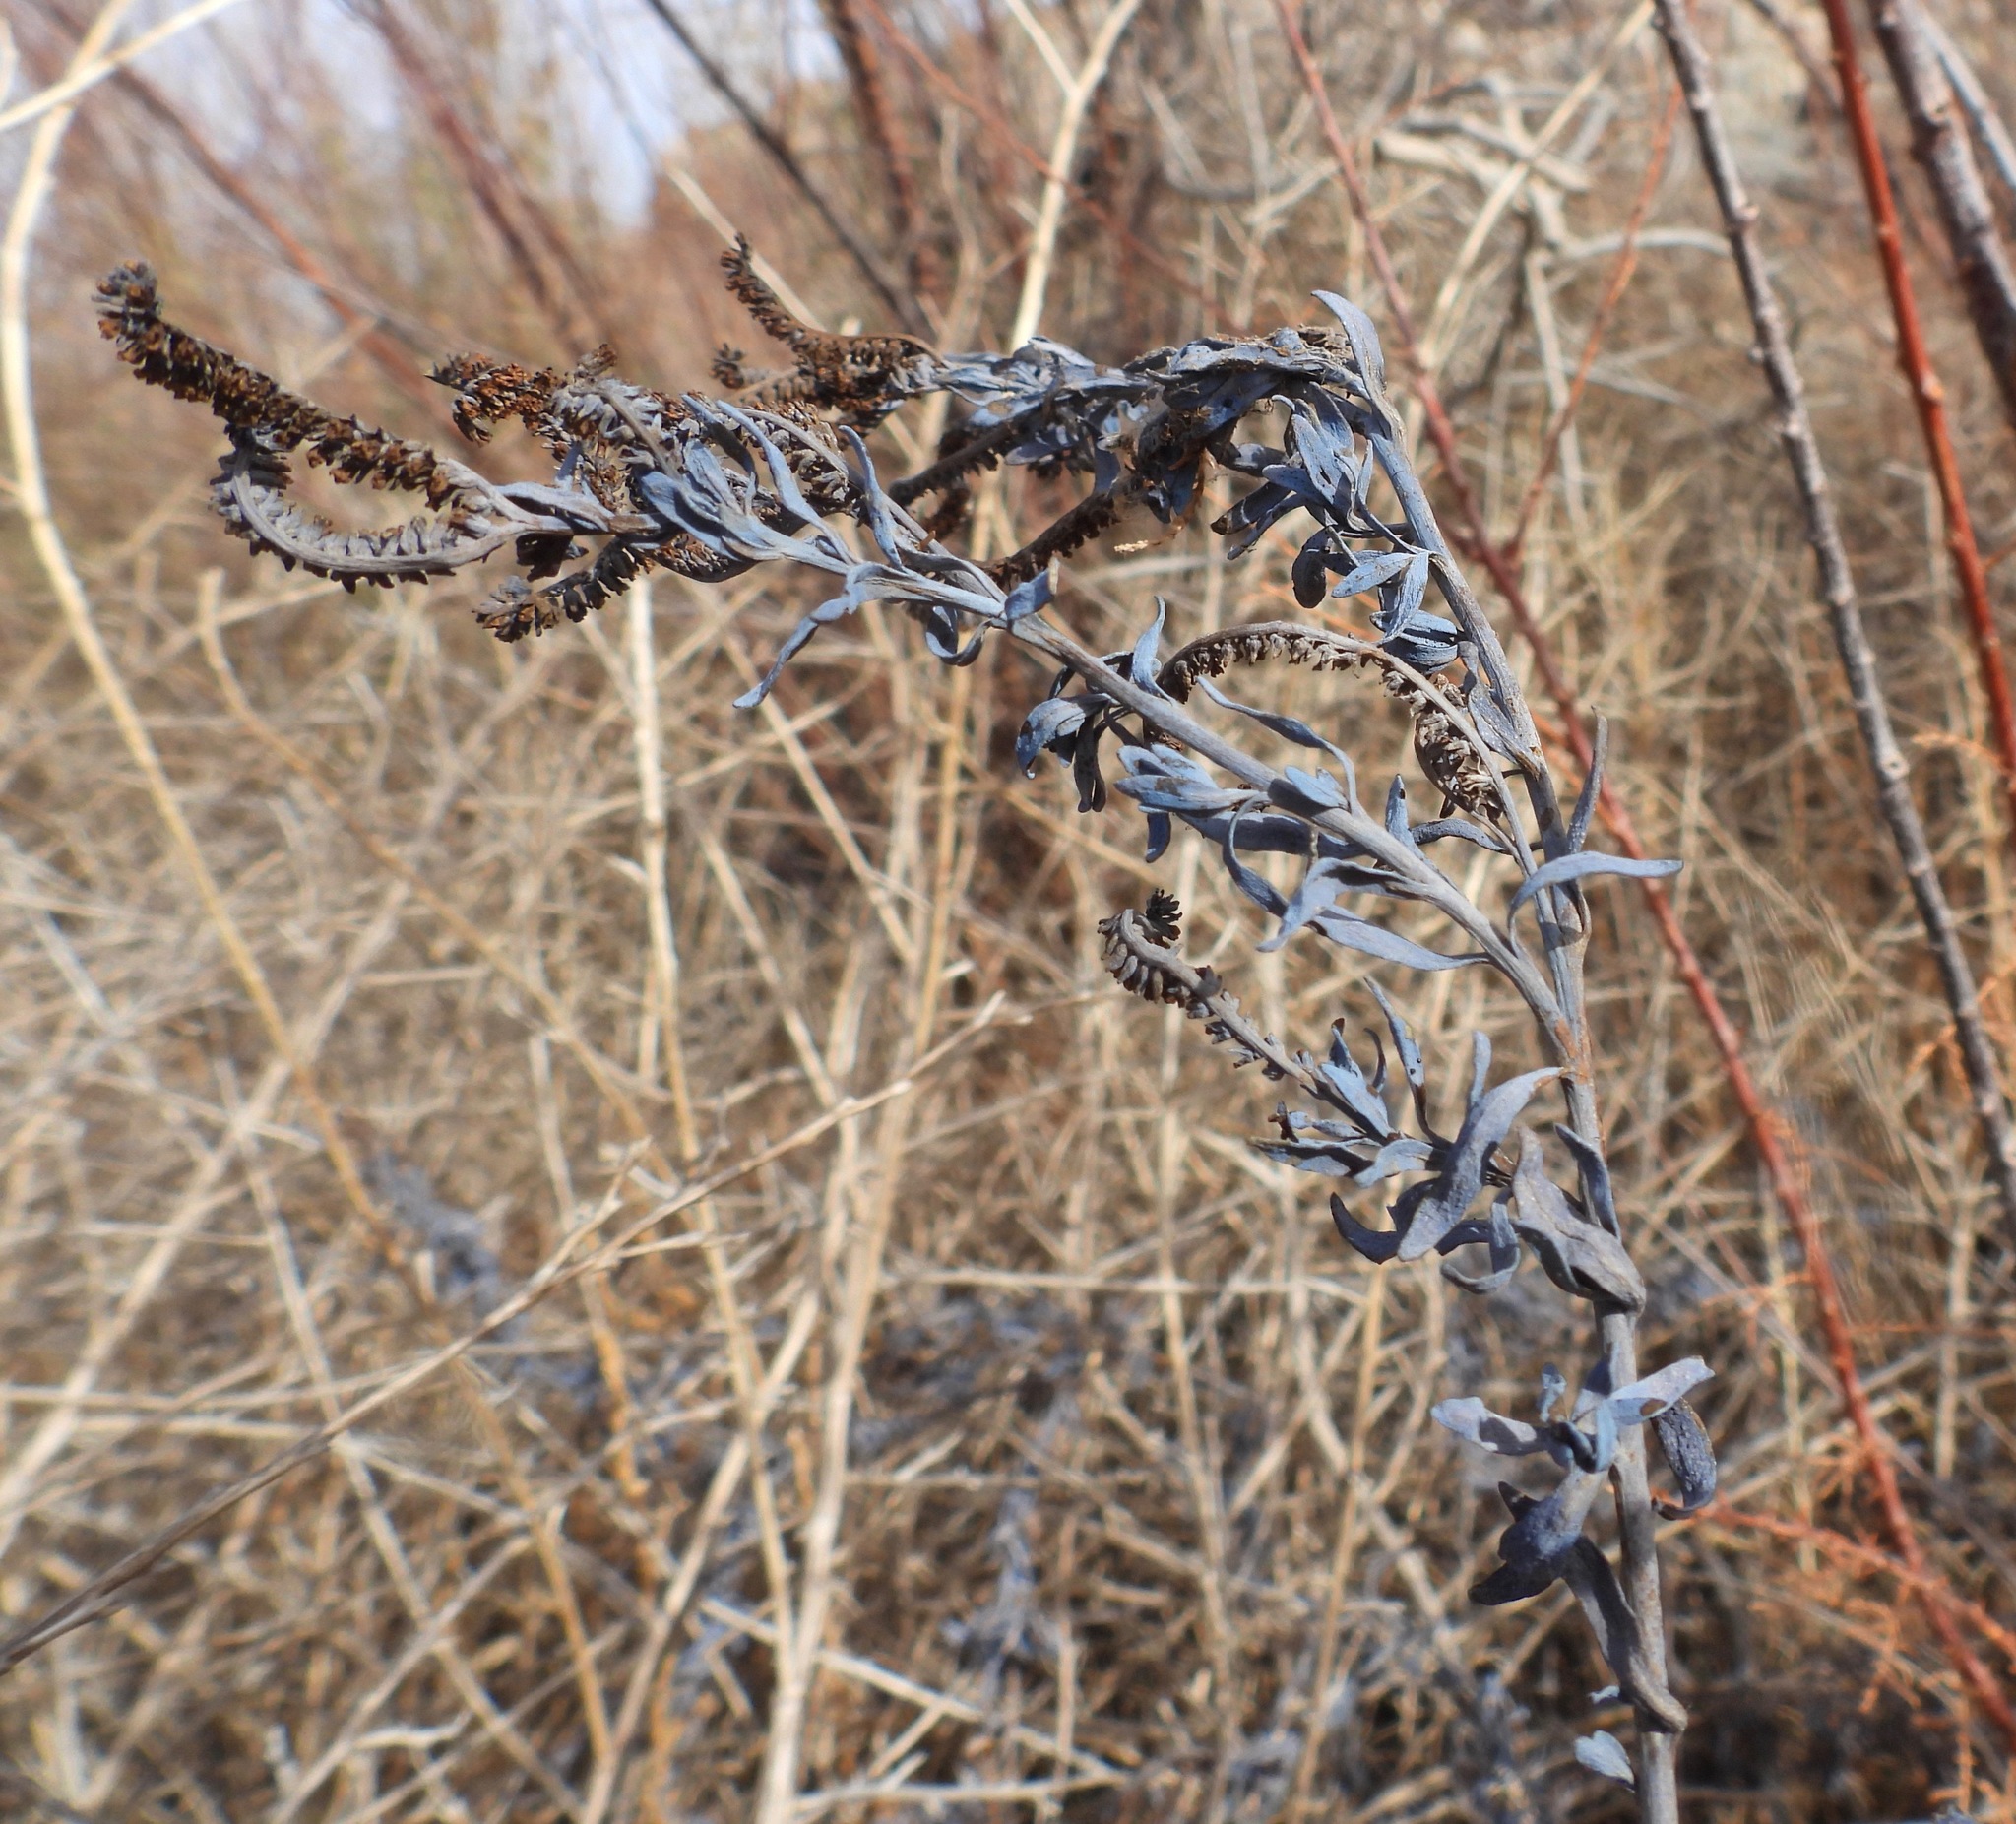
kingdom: Plantae
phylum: Tracheophyta
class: Magnoliopsida
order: Boraginales
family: Heliotropiaceae
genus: Heliotropium
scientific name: Heliotropium curassavicum
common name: Seaside heliotrope
